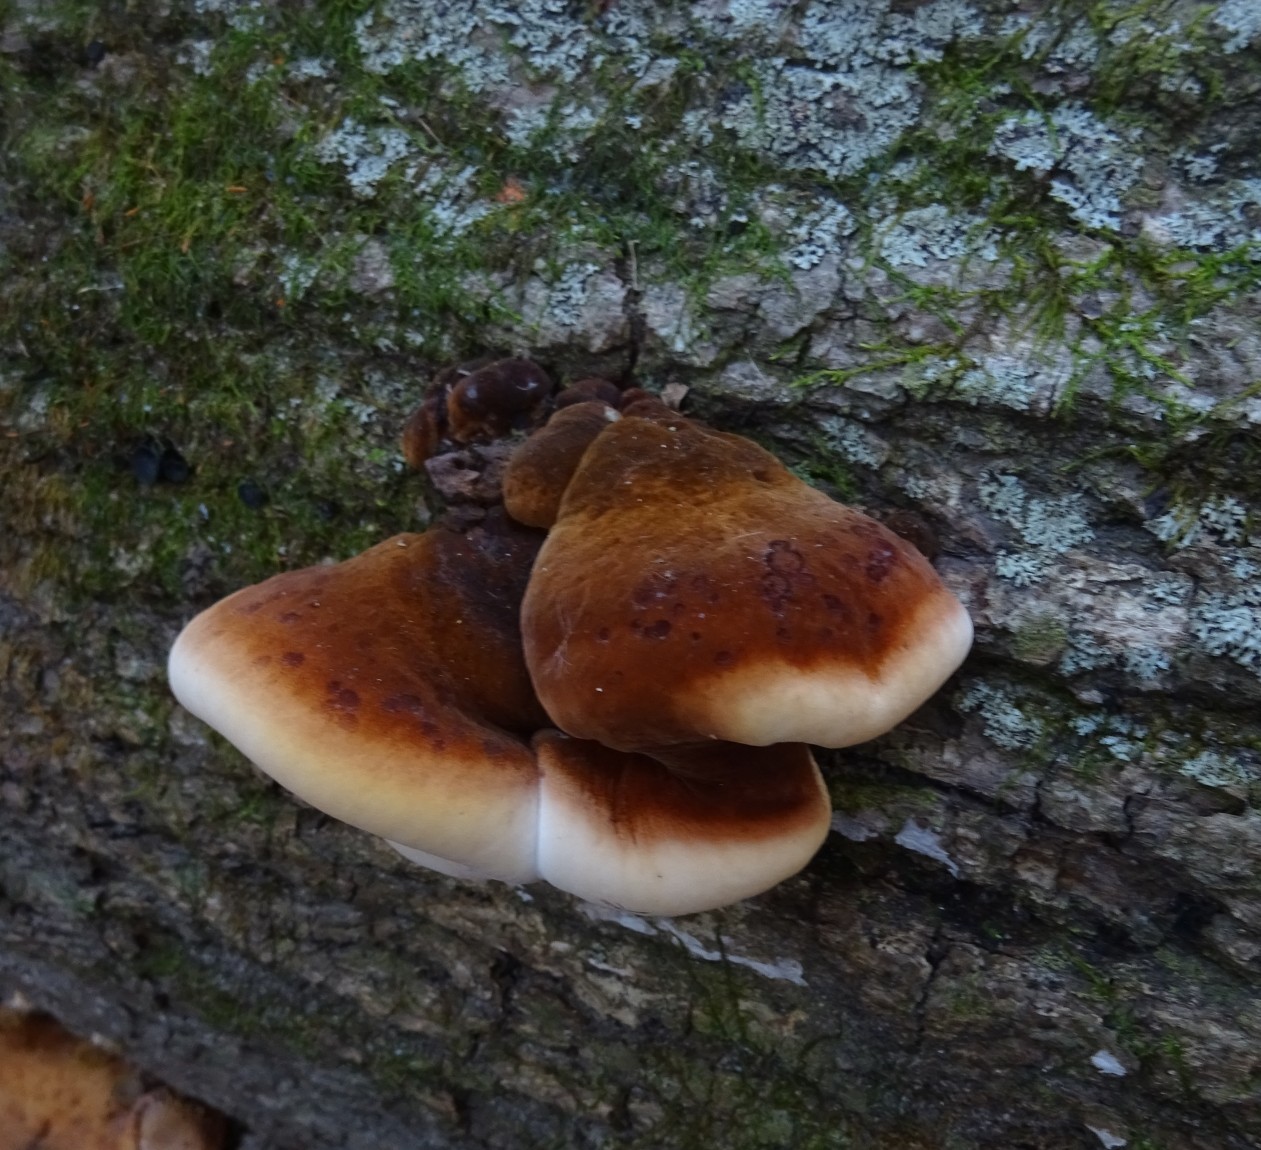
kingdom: Fungi
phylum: Basidiomycota
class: Agaricomycetes
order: Polyporales
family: Ischnodermataceae
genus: Ischnoderma
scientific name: Ischnoderma resinosum
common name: Resinous polypore
